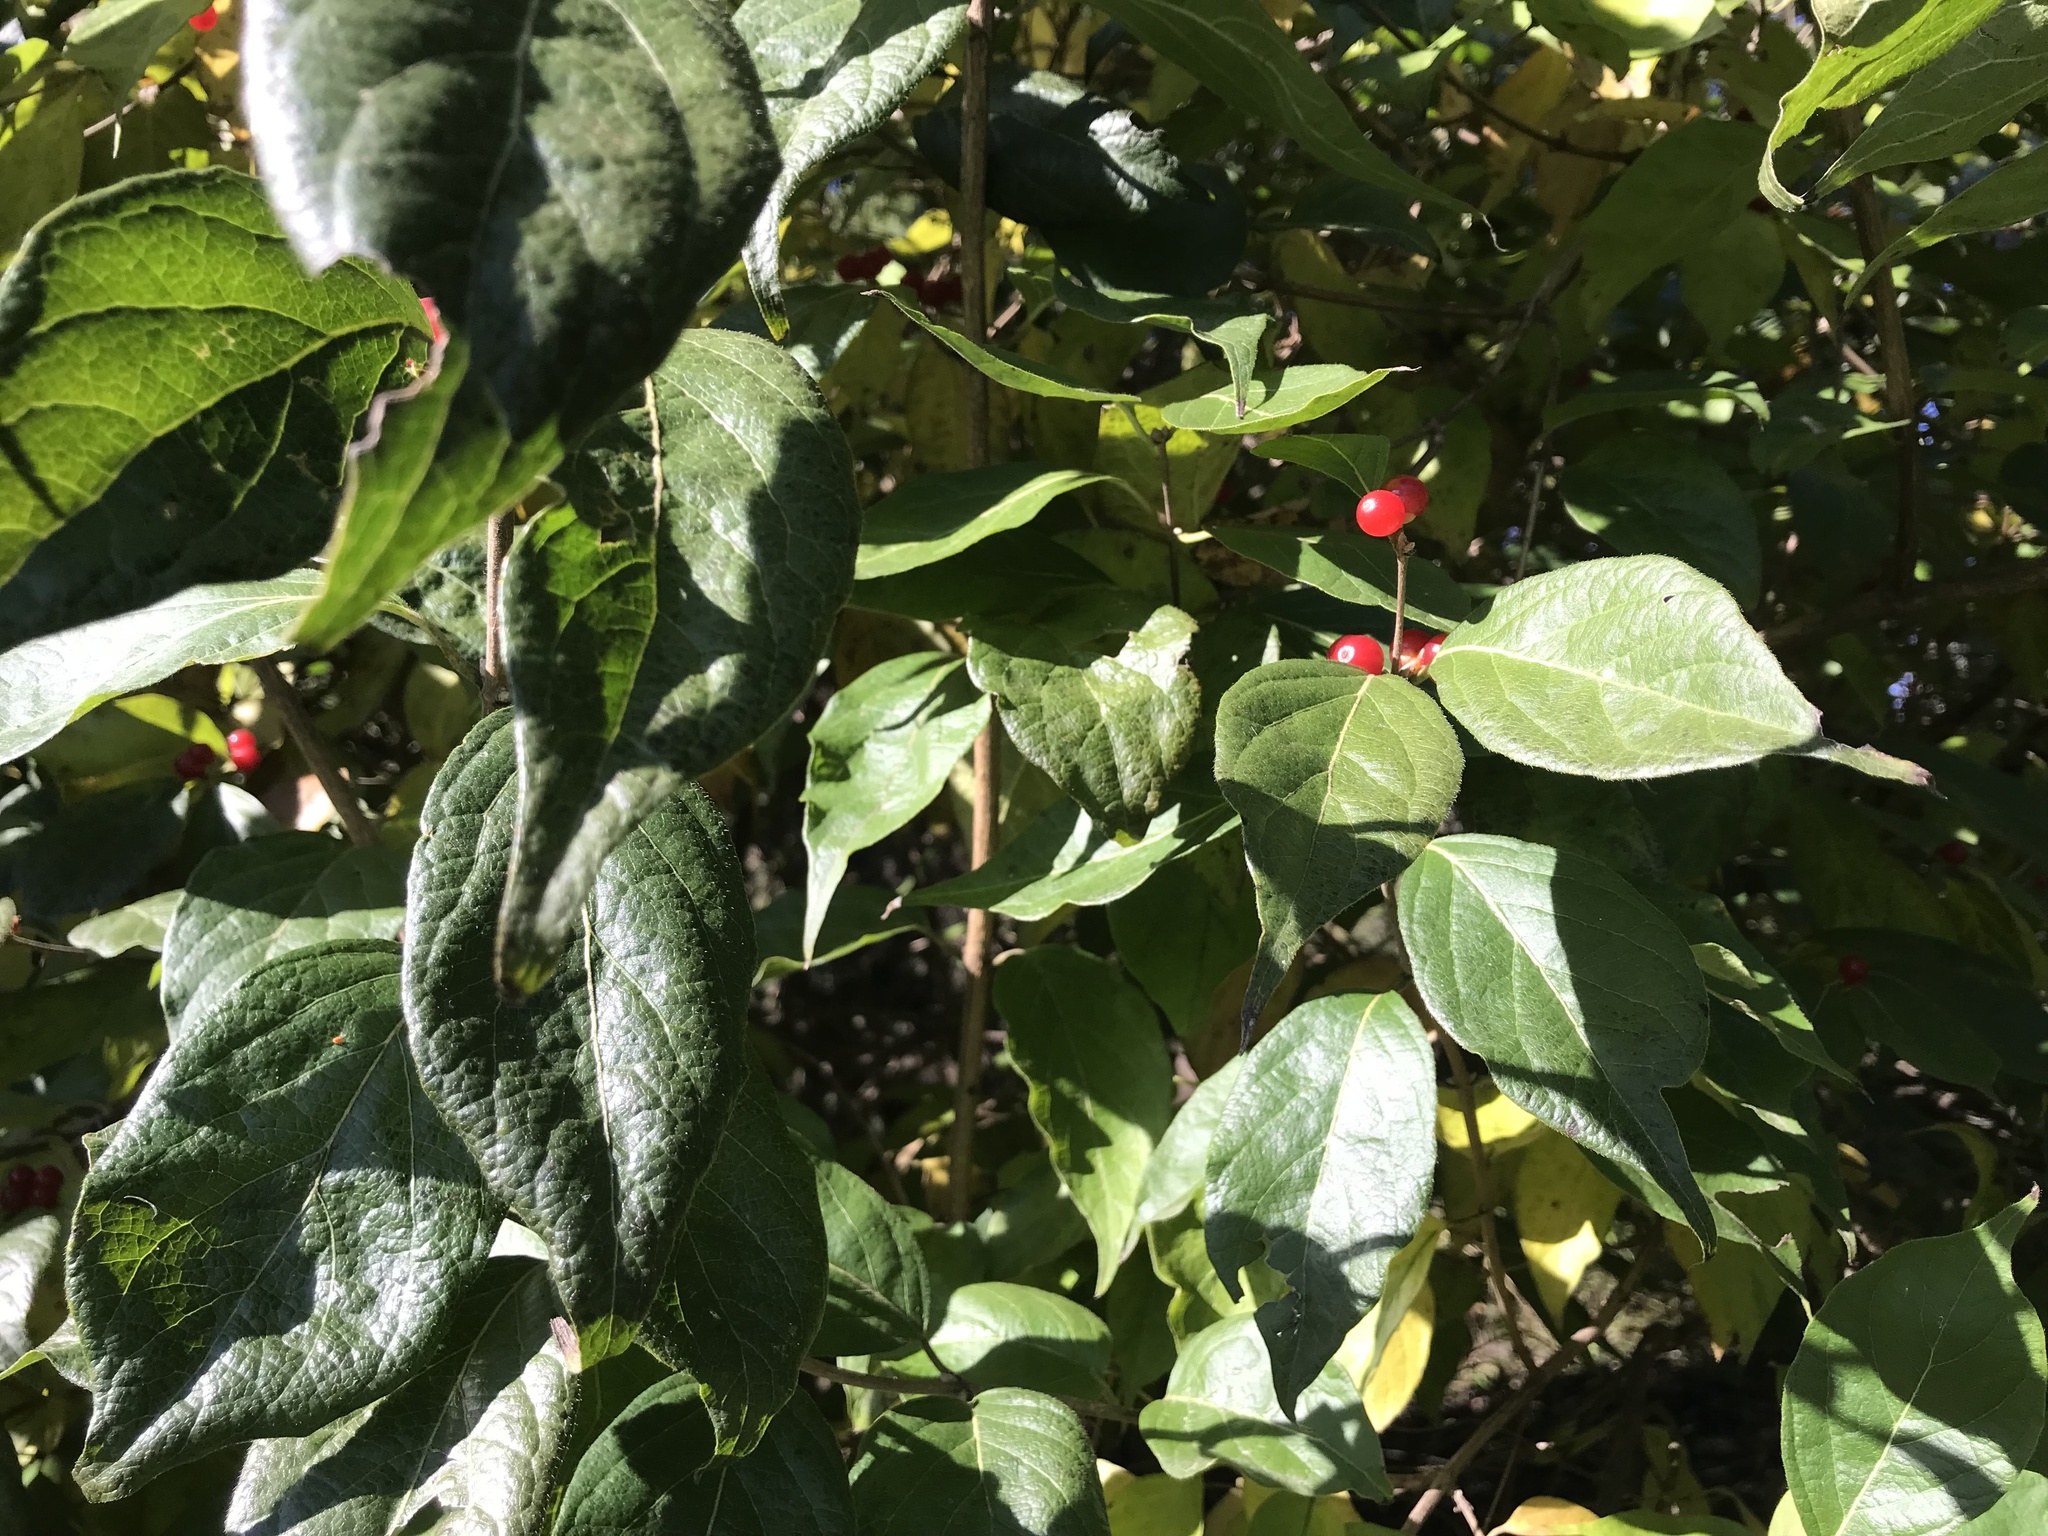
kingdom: Plantae
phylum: Tracheophyta
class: Magnoliopsida
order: Dipsacales
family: Caprifoliaceae
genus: Lonicera
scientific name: Lonicera maackii
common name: Amur honeysuckle
